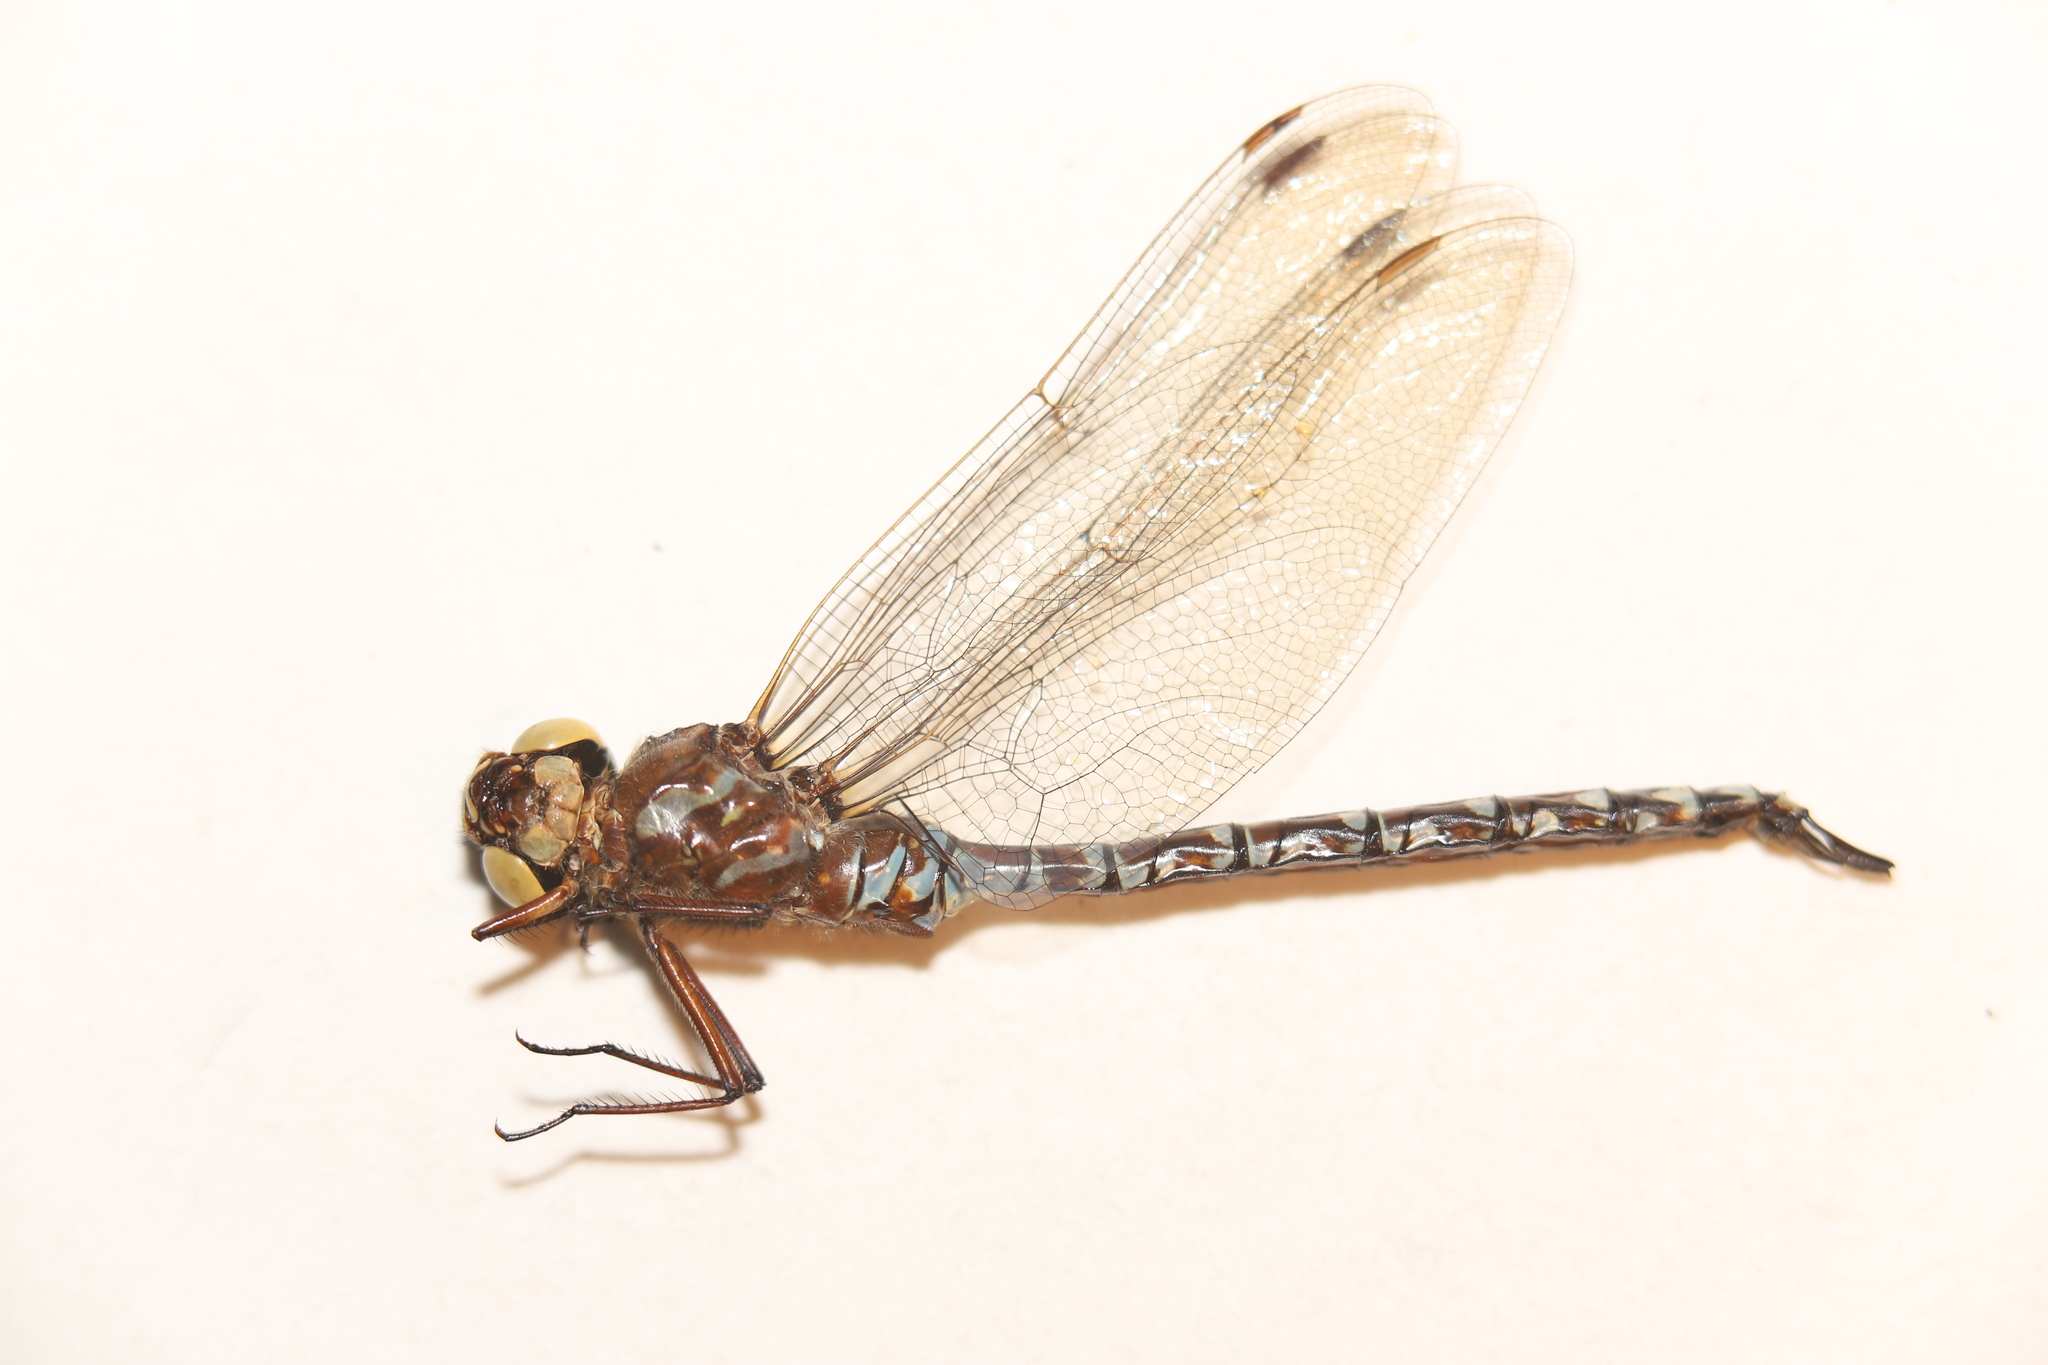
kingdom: Animalia
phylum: Arthropoda
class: Insecta
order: Odonata
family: Aeshnidae
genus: Aeshna
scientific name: Aeshna canadensis
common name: Canada darner
